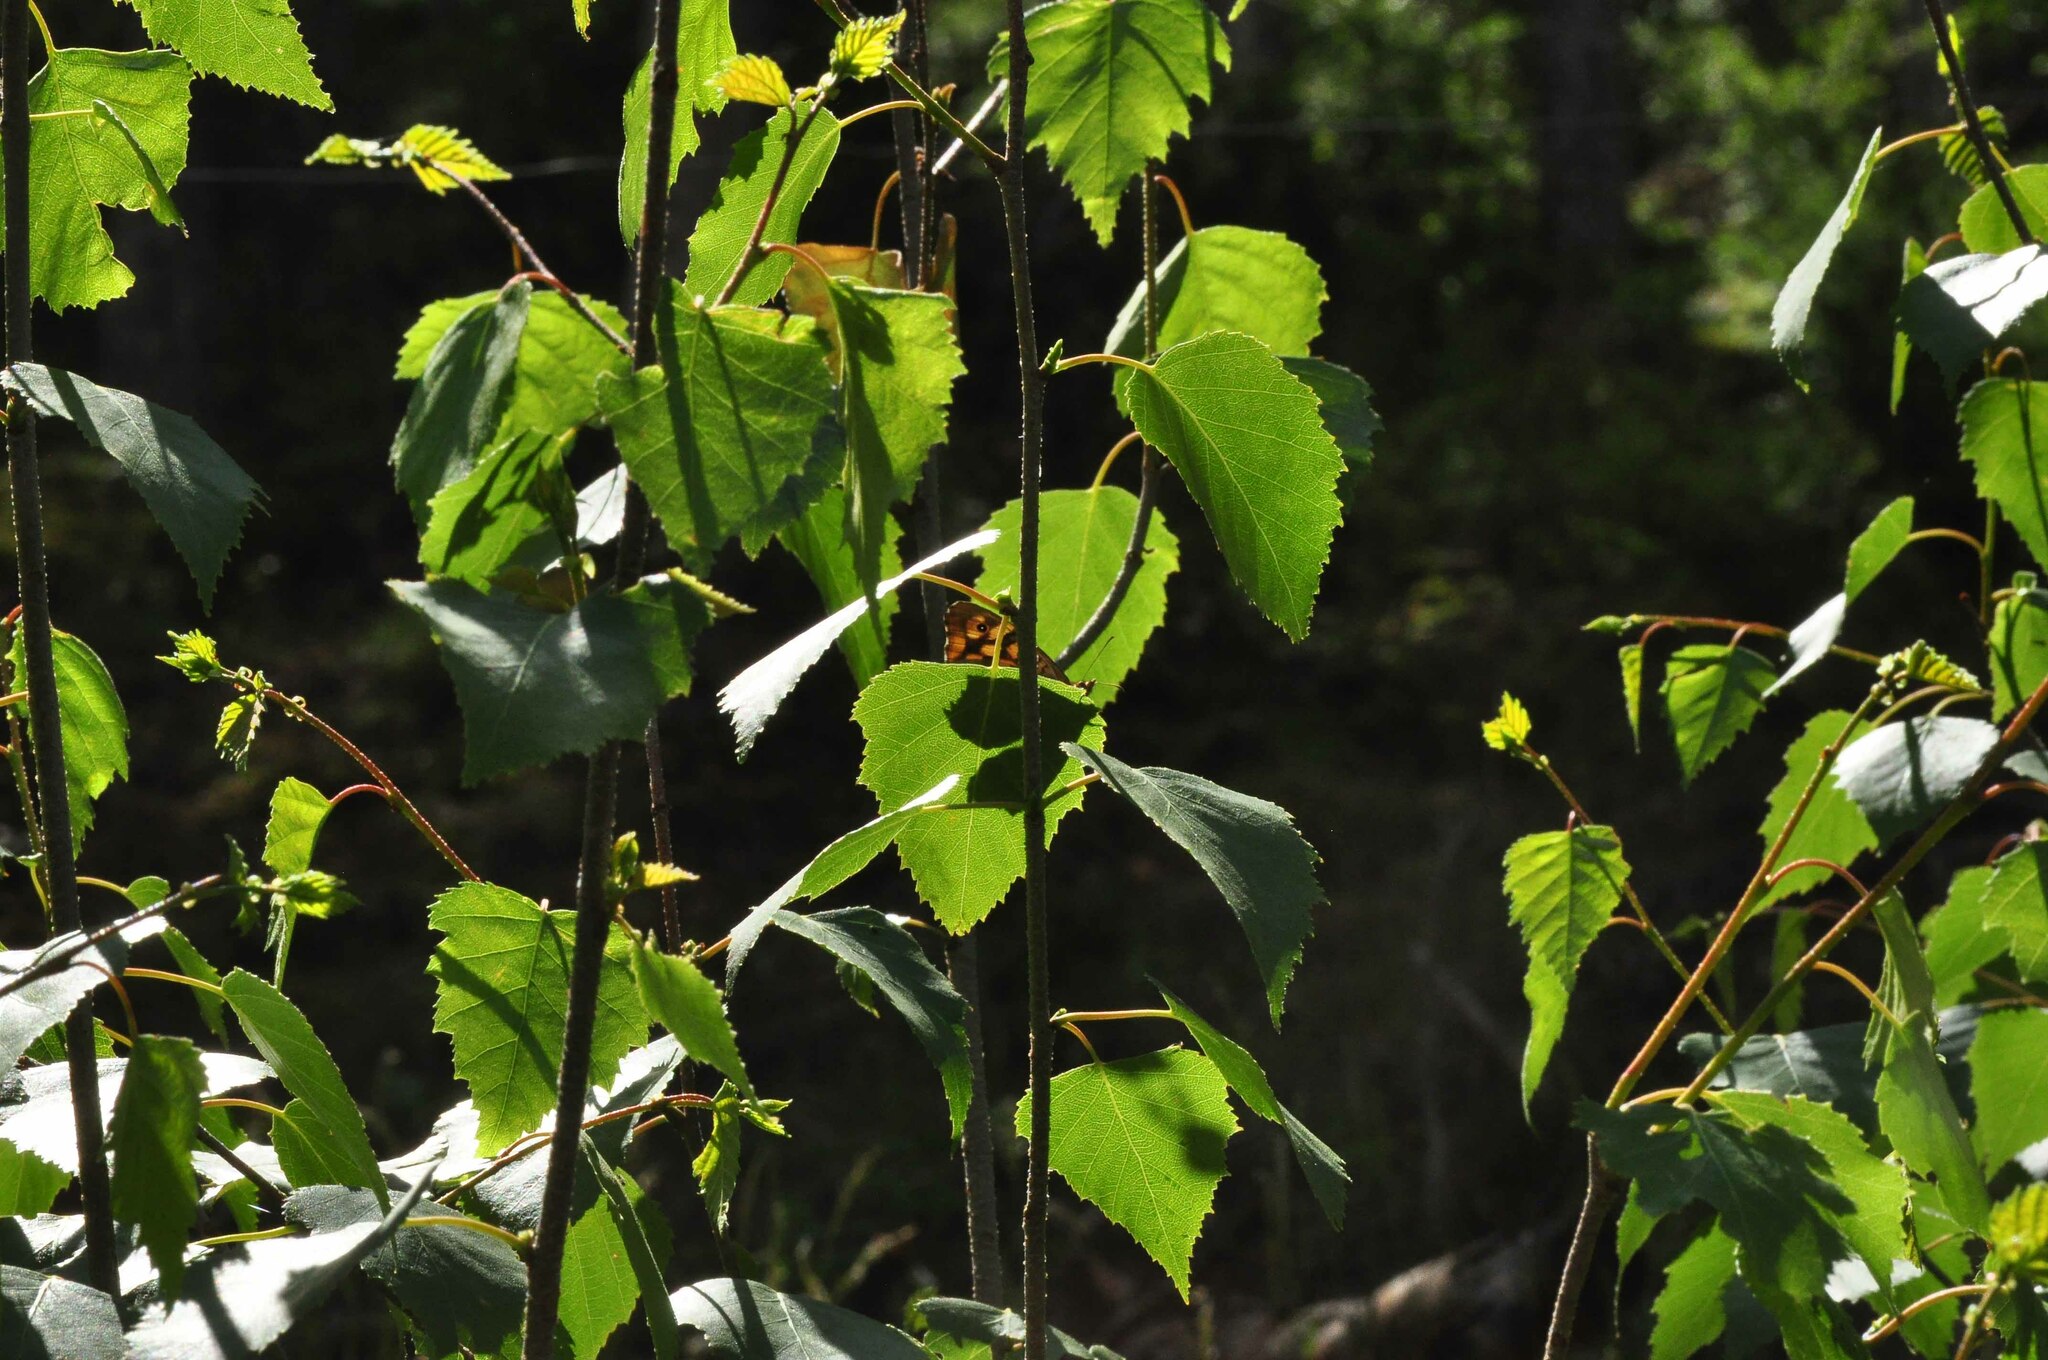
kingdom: Animalia
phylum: Arthropoda
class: Insecta
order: Lepidoptera
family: Nymphalidae
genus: Pararge
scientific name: Pararge aegeria
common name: Speckled wood
